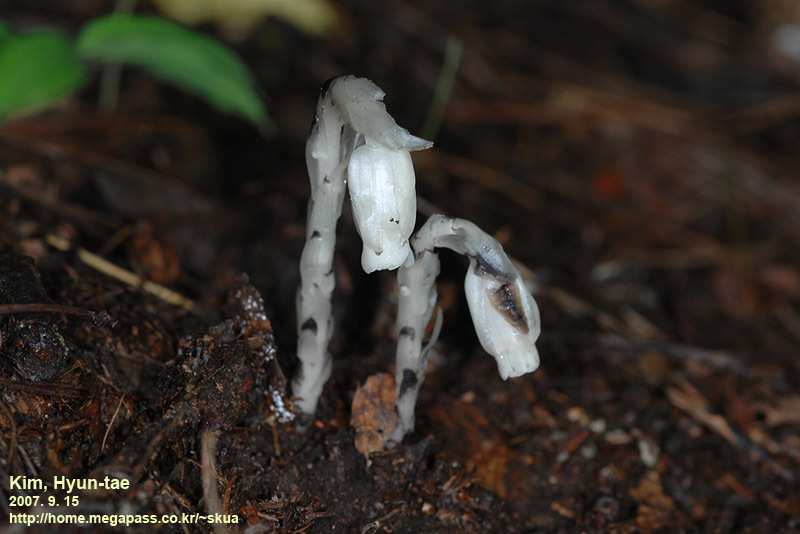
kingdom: Plantae
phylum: Tracheophyta
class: Magnoliopsida
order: Ericales
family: Ericaceae
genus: Monotropastrum
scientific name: Monotropastrum humile
